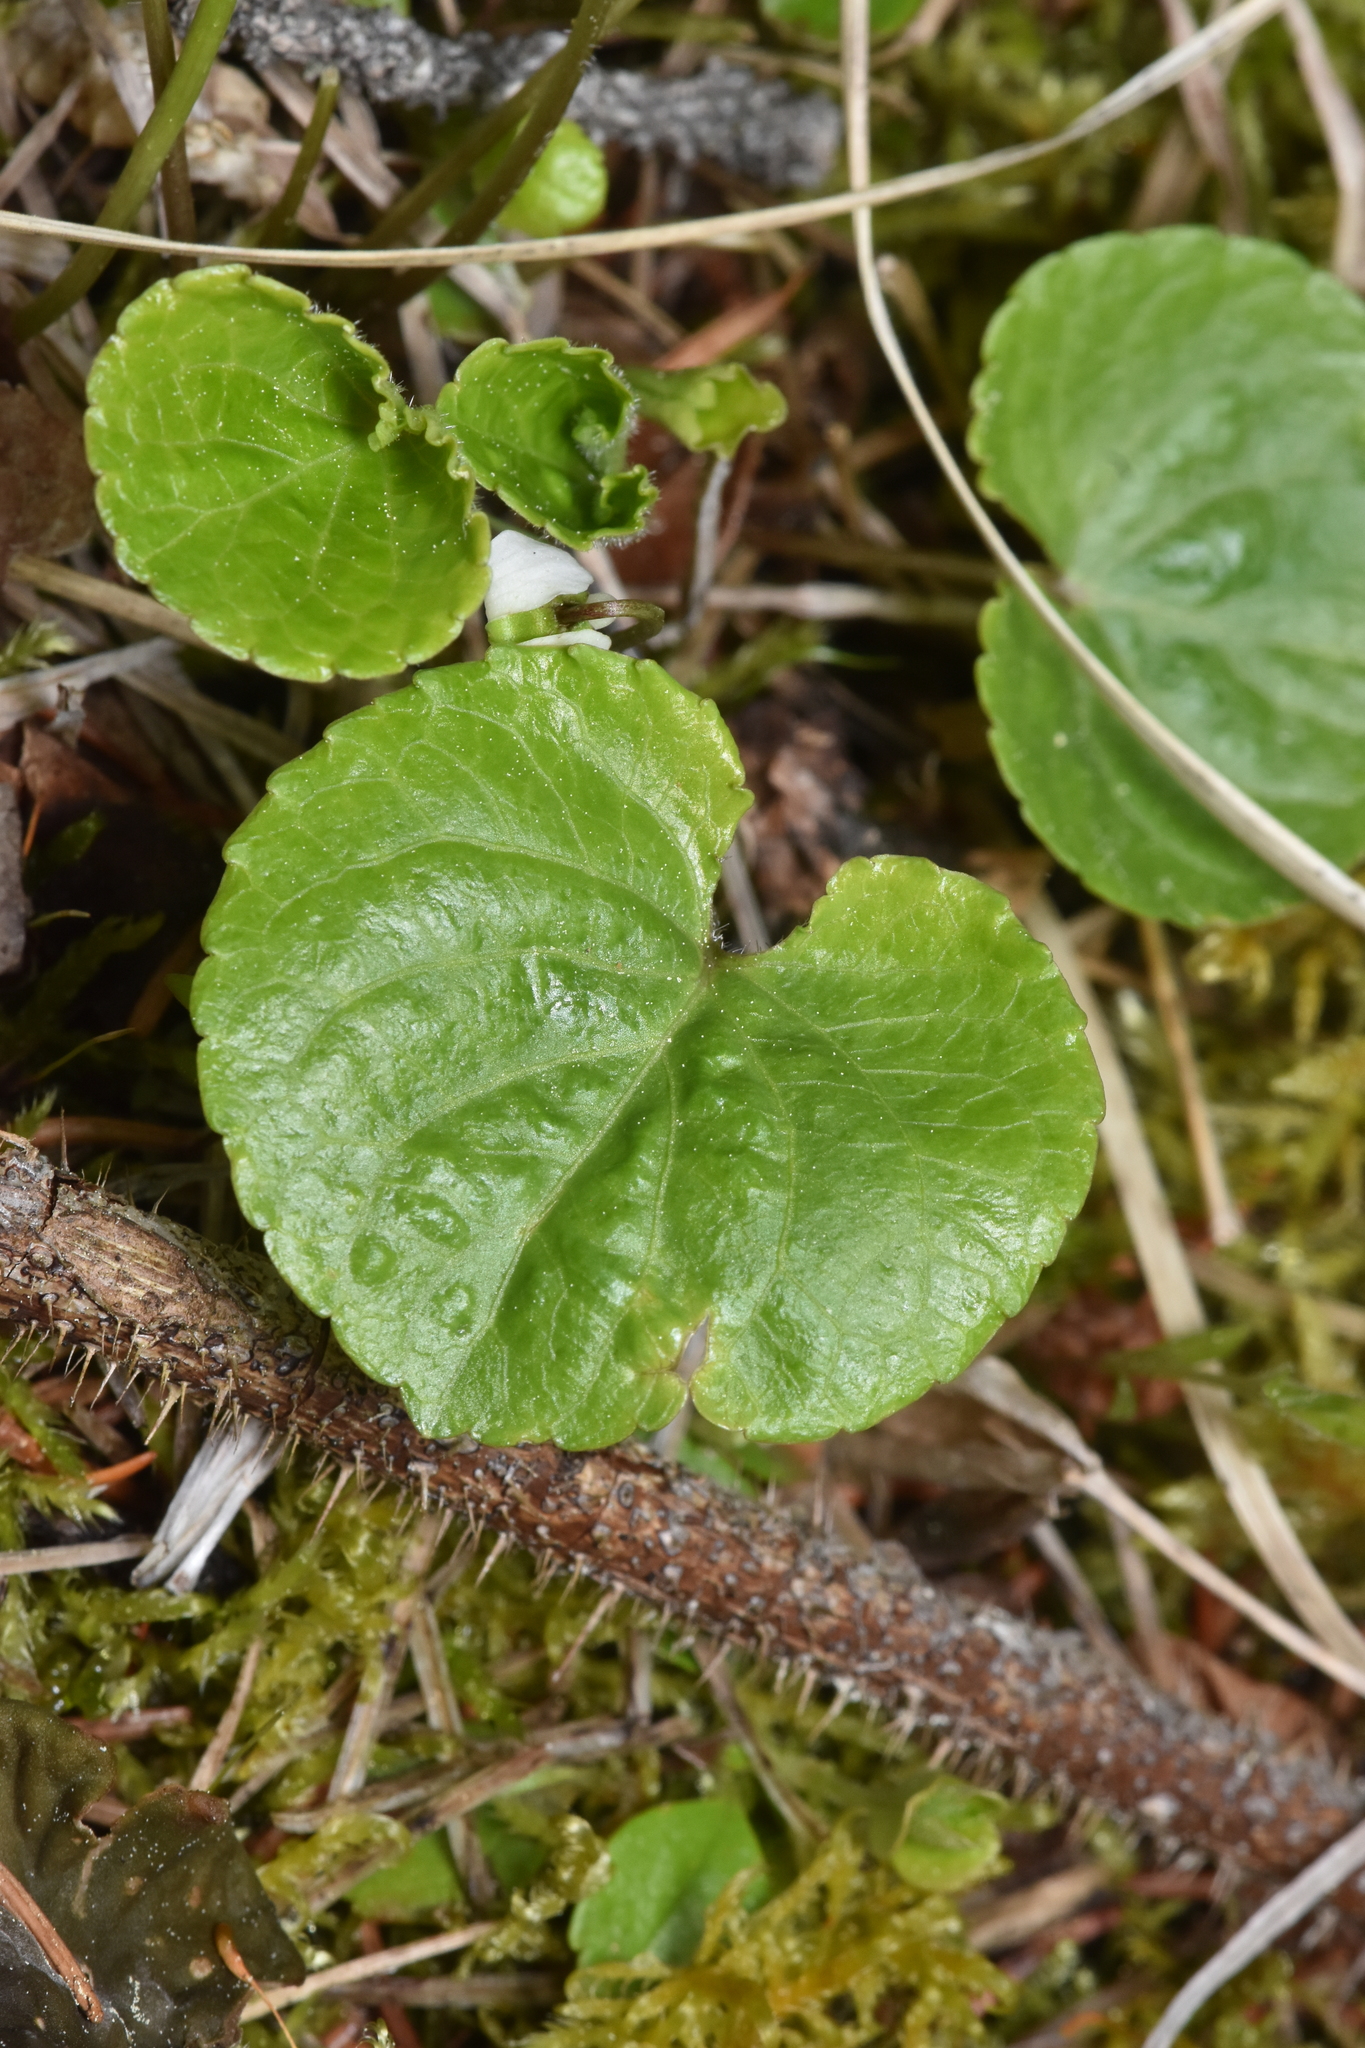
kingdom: Plantae
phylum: Tracheophyta
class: Magnoliopsida
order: Malpighiales
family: Violaceae
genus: Viola
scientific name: Viola renifolia
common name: Kidney-leaf violet
